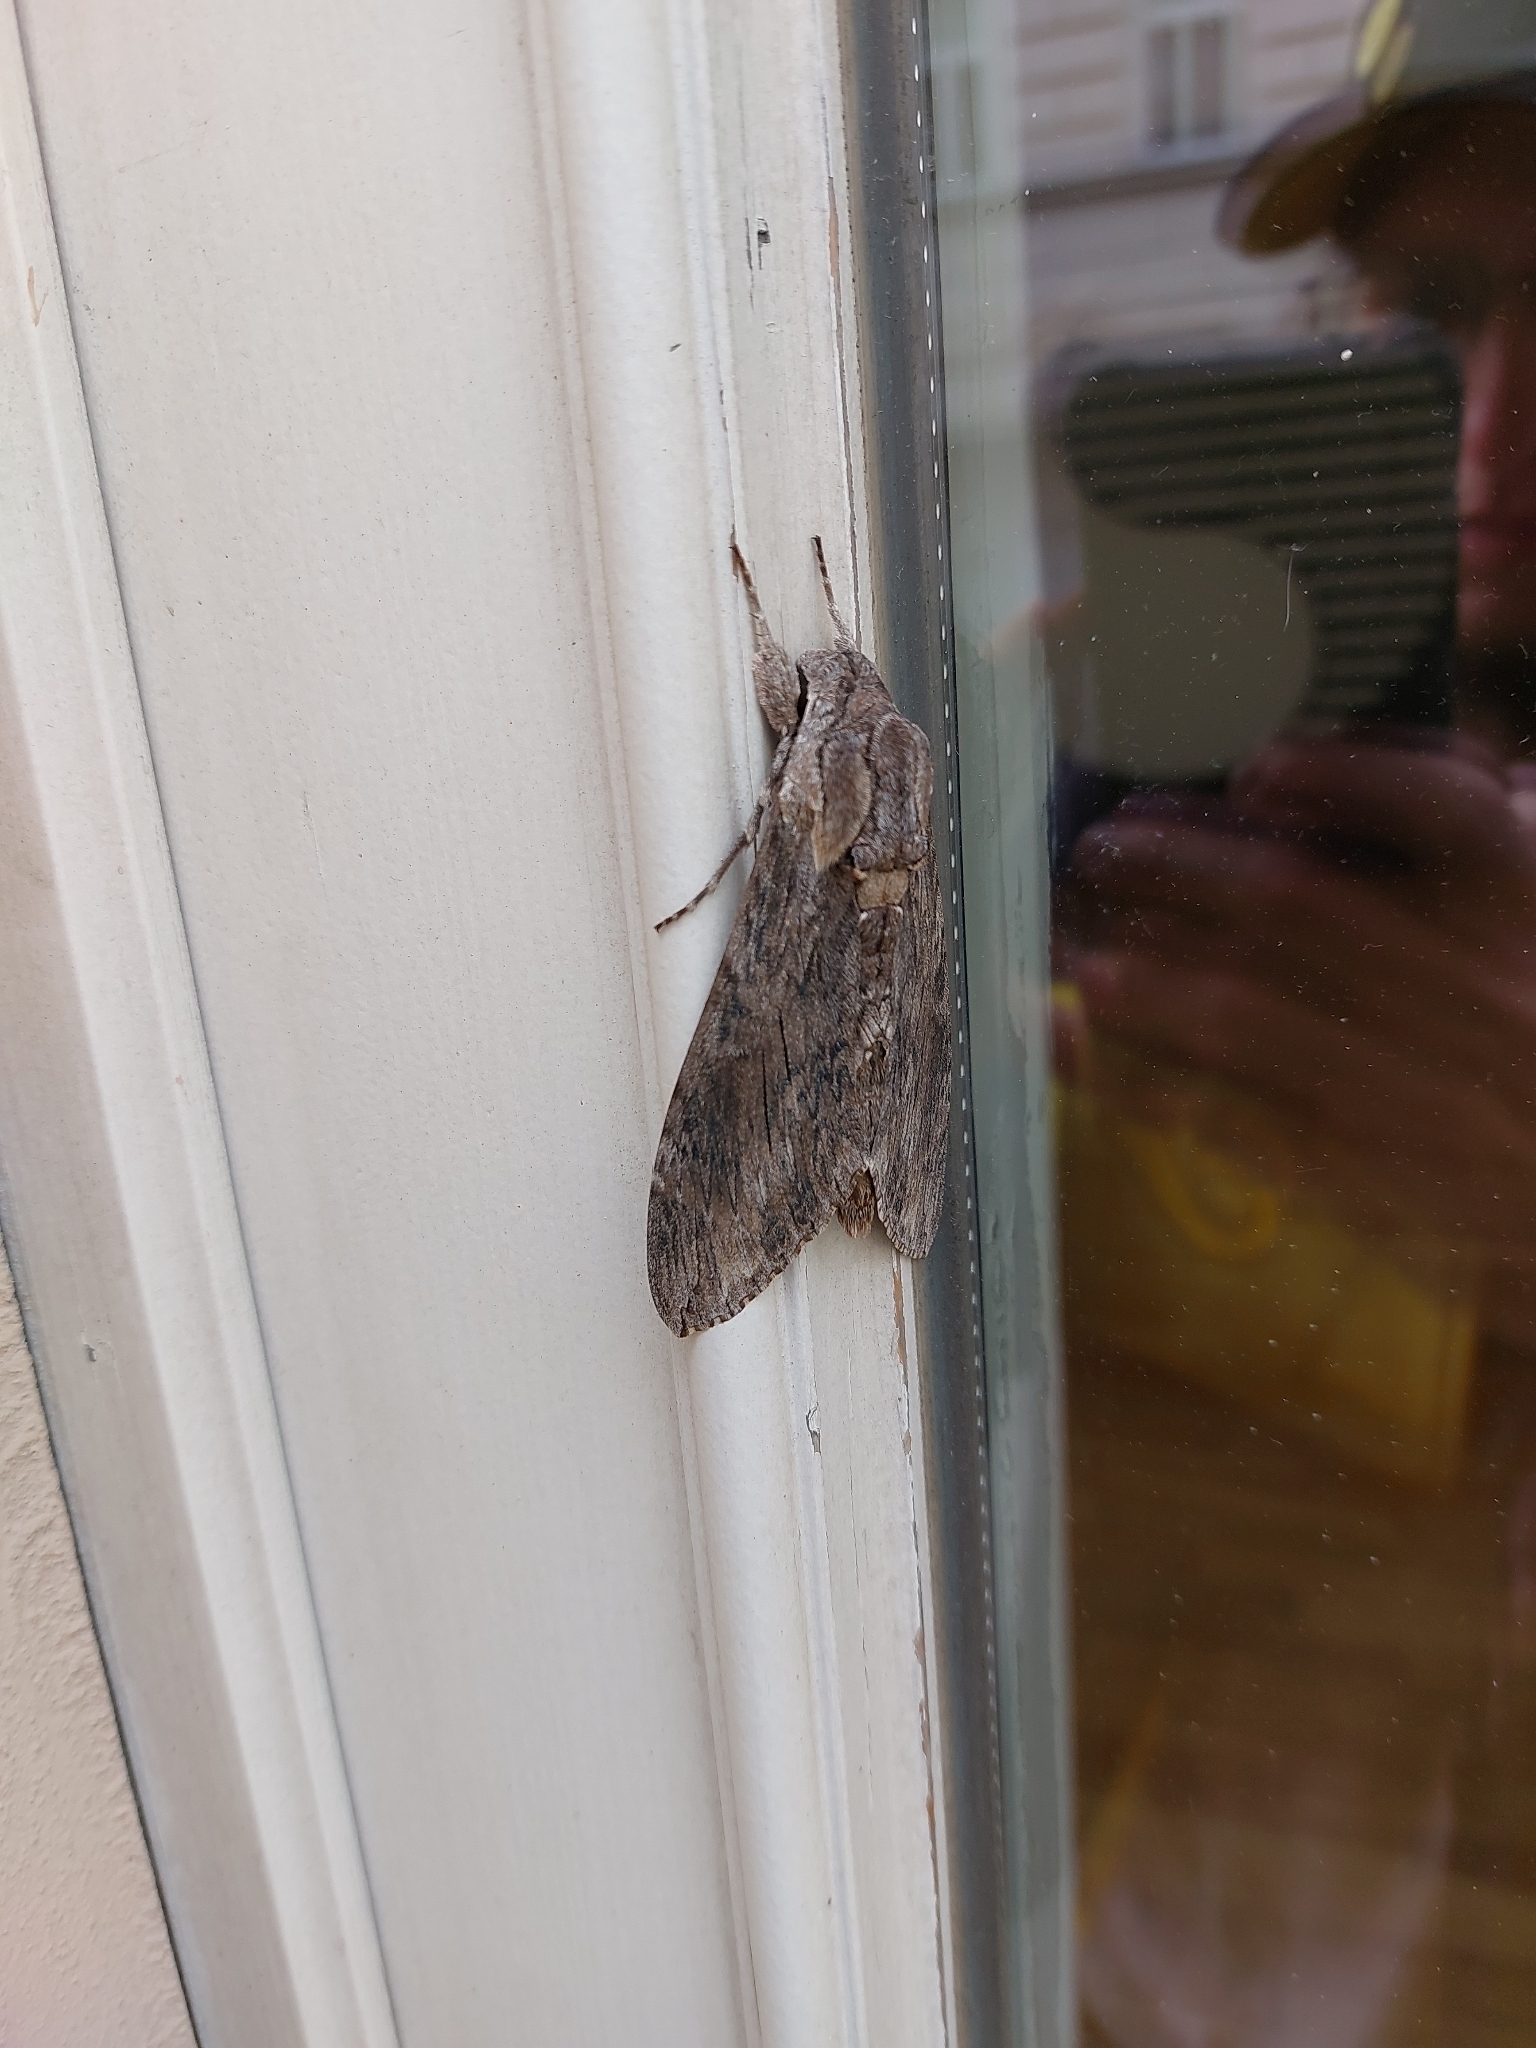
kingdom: Animalia
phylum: Arthropoda
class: Insecta
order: Lepidoptera
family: Sphingidae
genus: Agrius
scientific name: Agrius convolvuli
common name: Convolvulus hawkmoth
